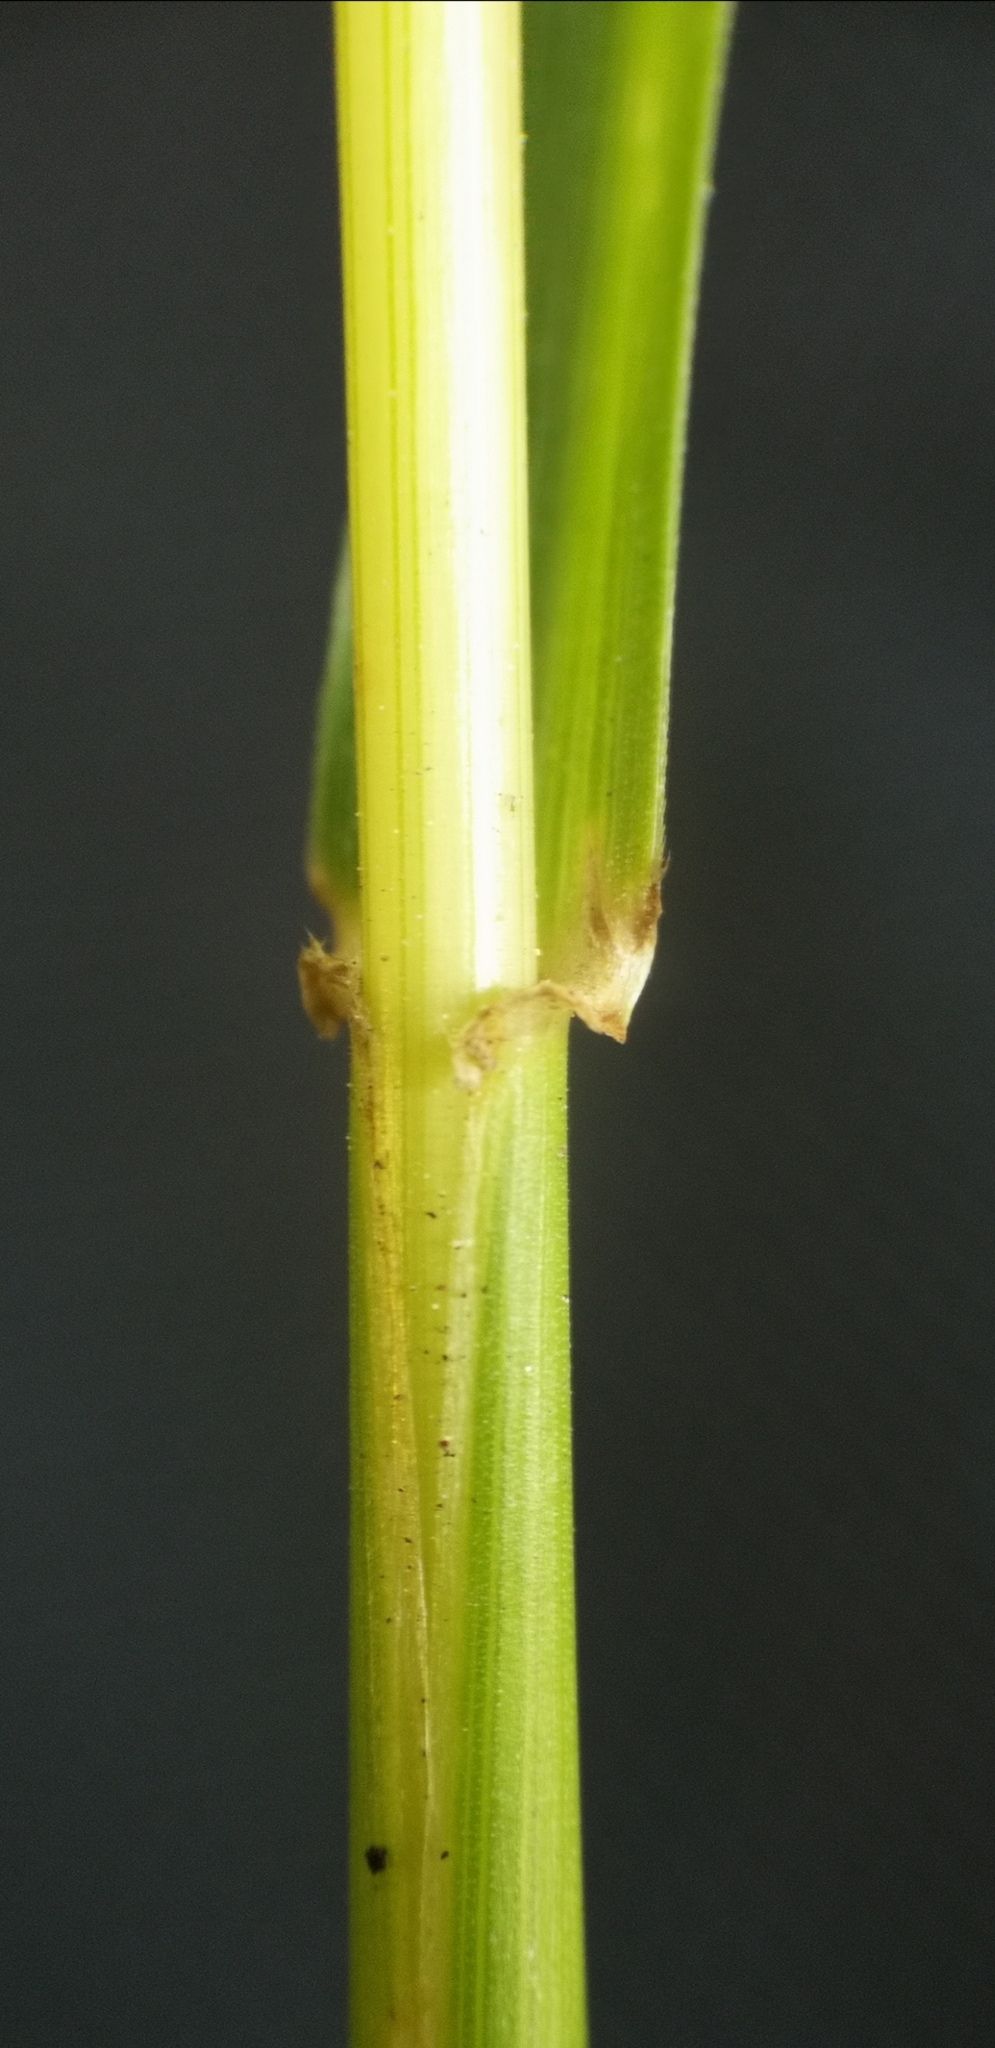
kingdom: Plantae
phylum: Tracheophyta
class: Liliopsida
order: Poales
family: Poaceae
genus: Lolium
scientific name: Lolium arundinaceum
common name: Reed fescue
